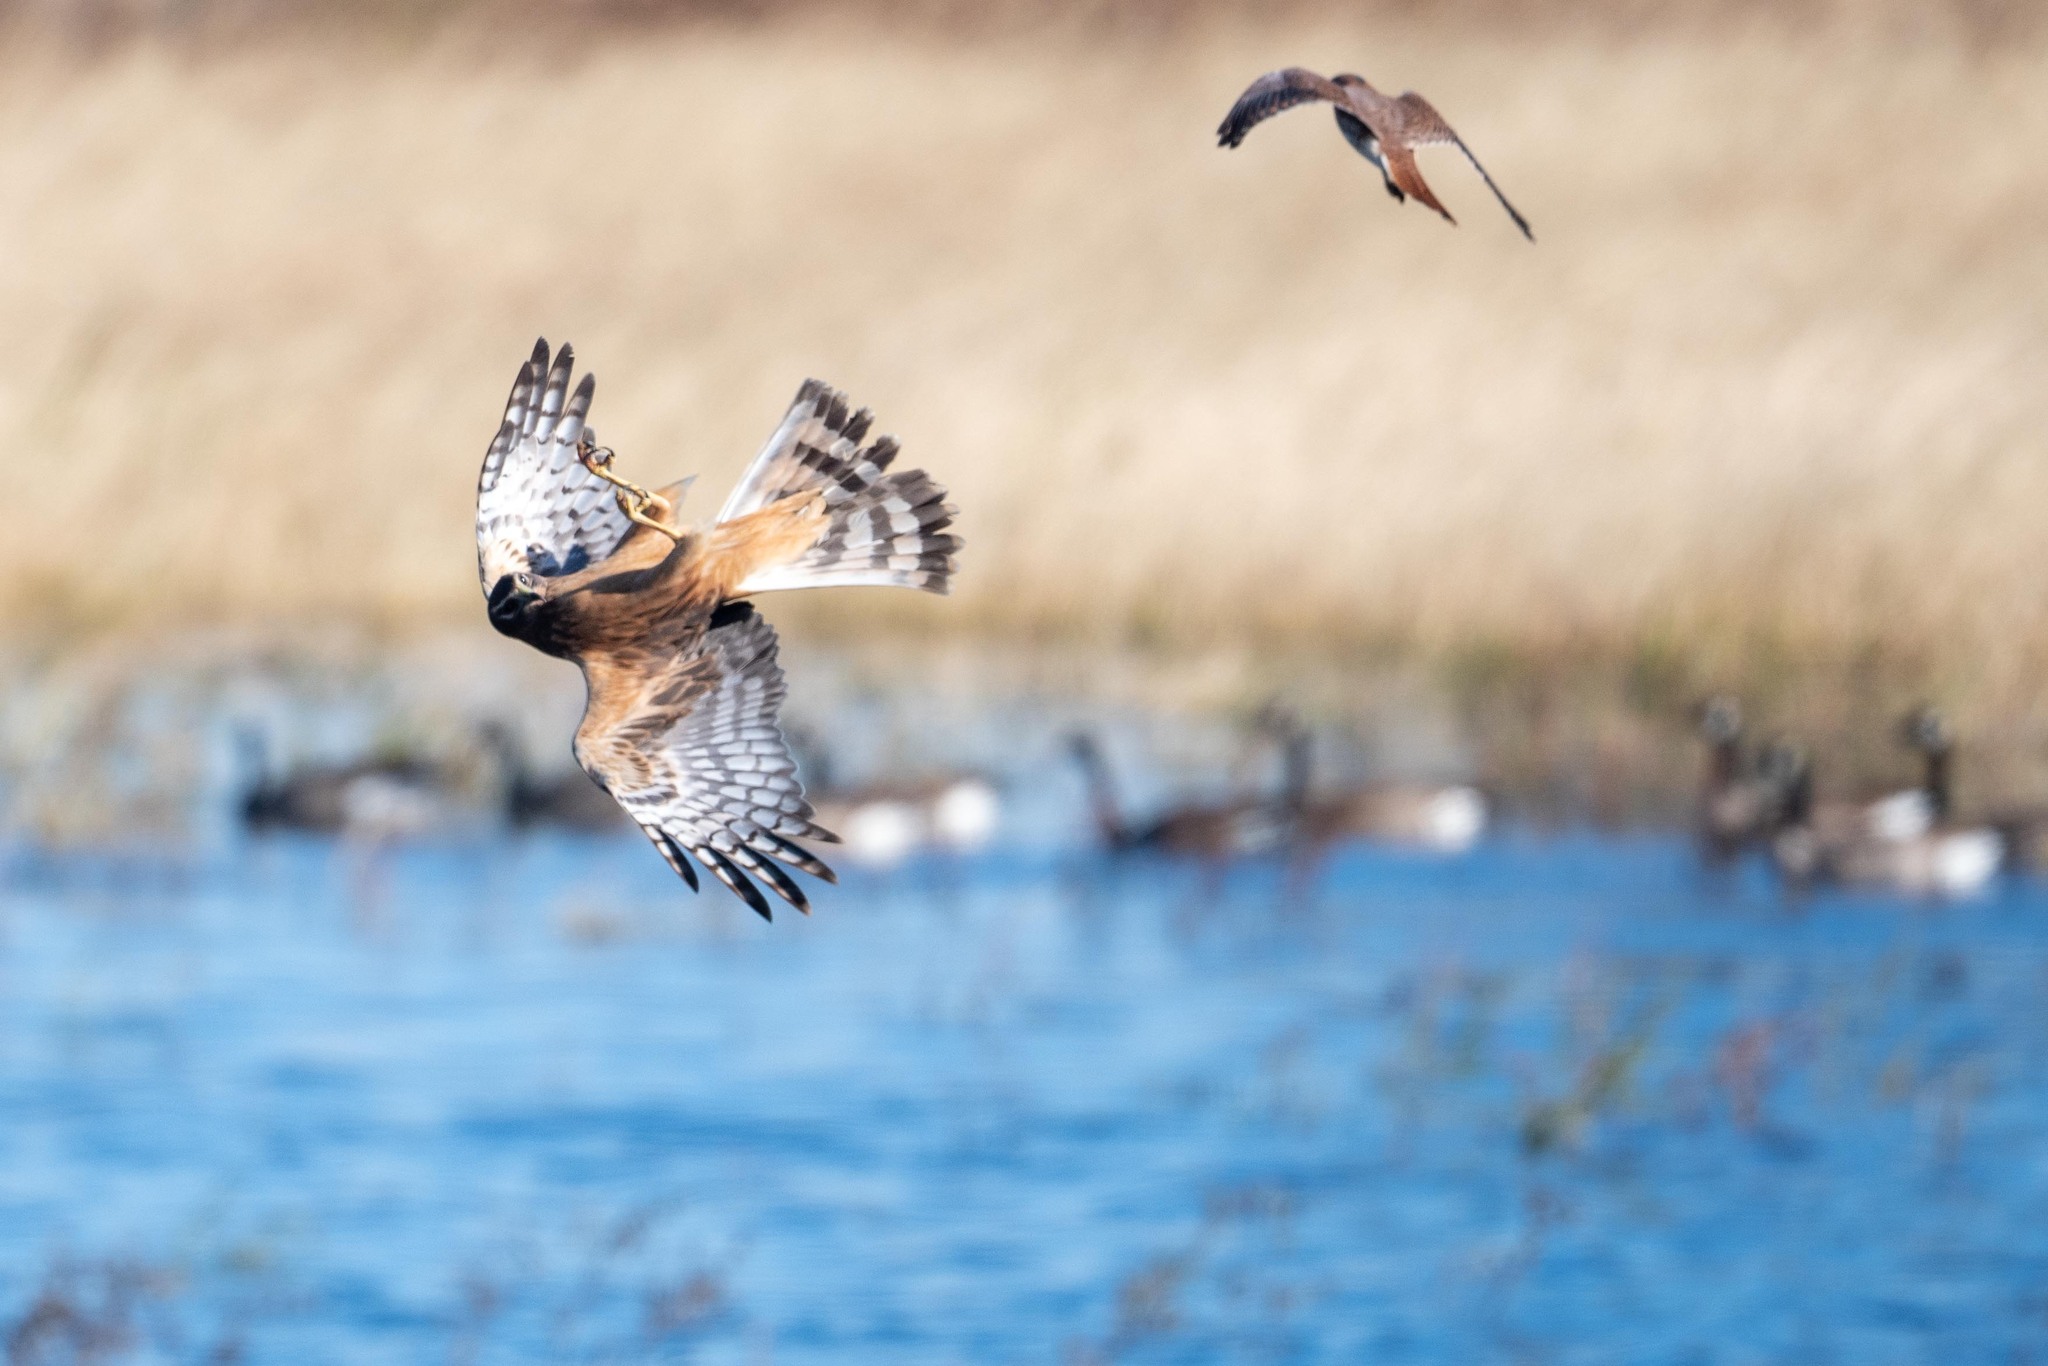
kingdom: Animalia
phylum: Chordata
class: Aves
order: Accipitriformes
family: Accipitridae
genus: Circus
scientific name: Circus cyaneus
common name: Hen harrier
